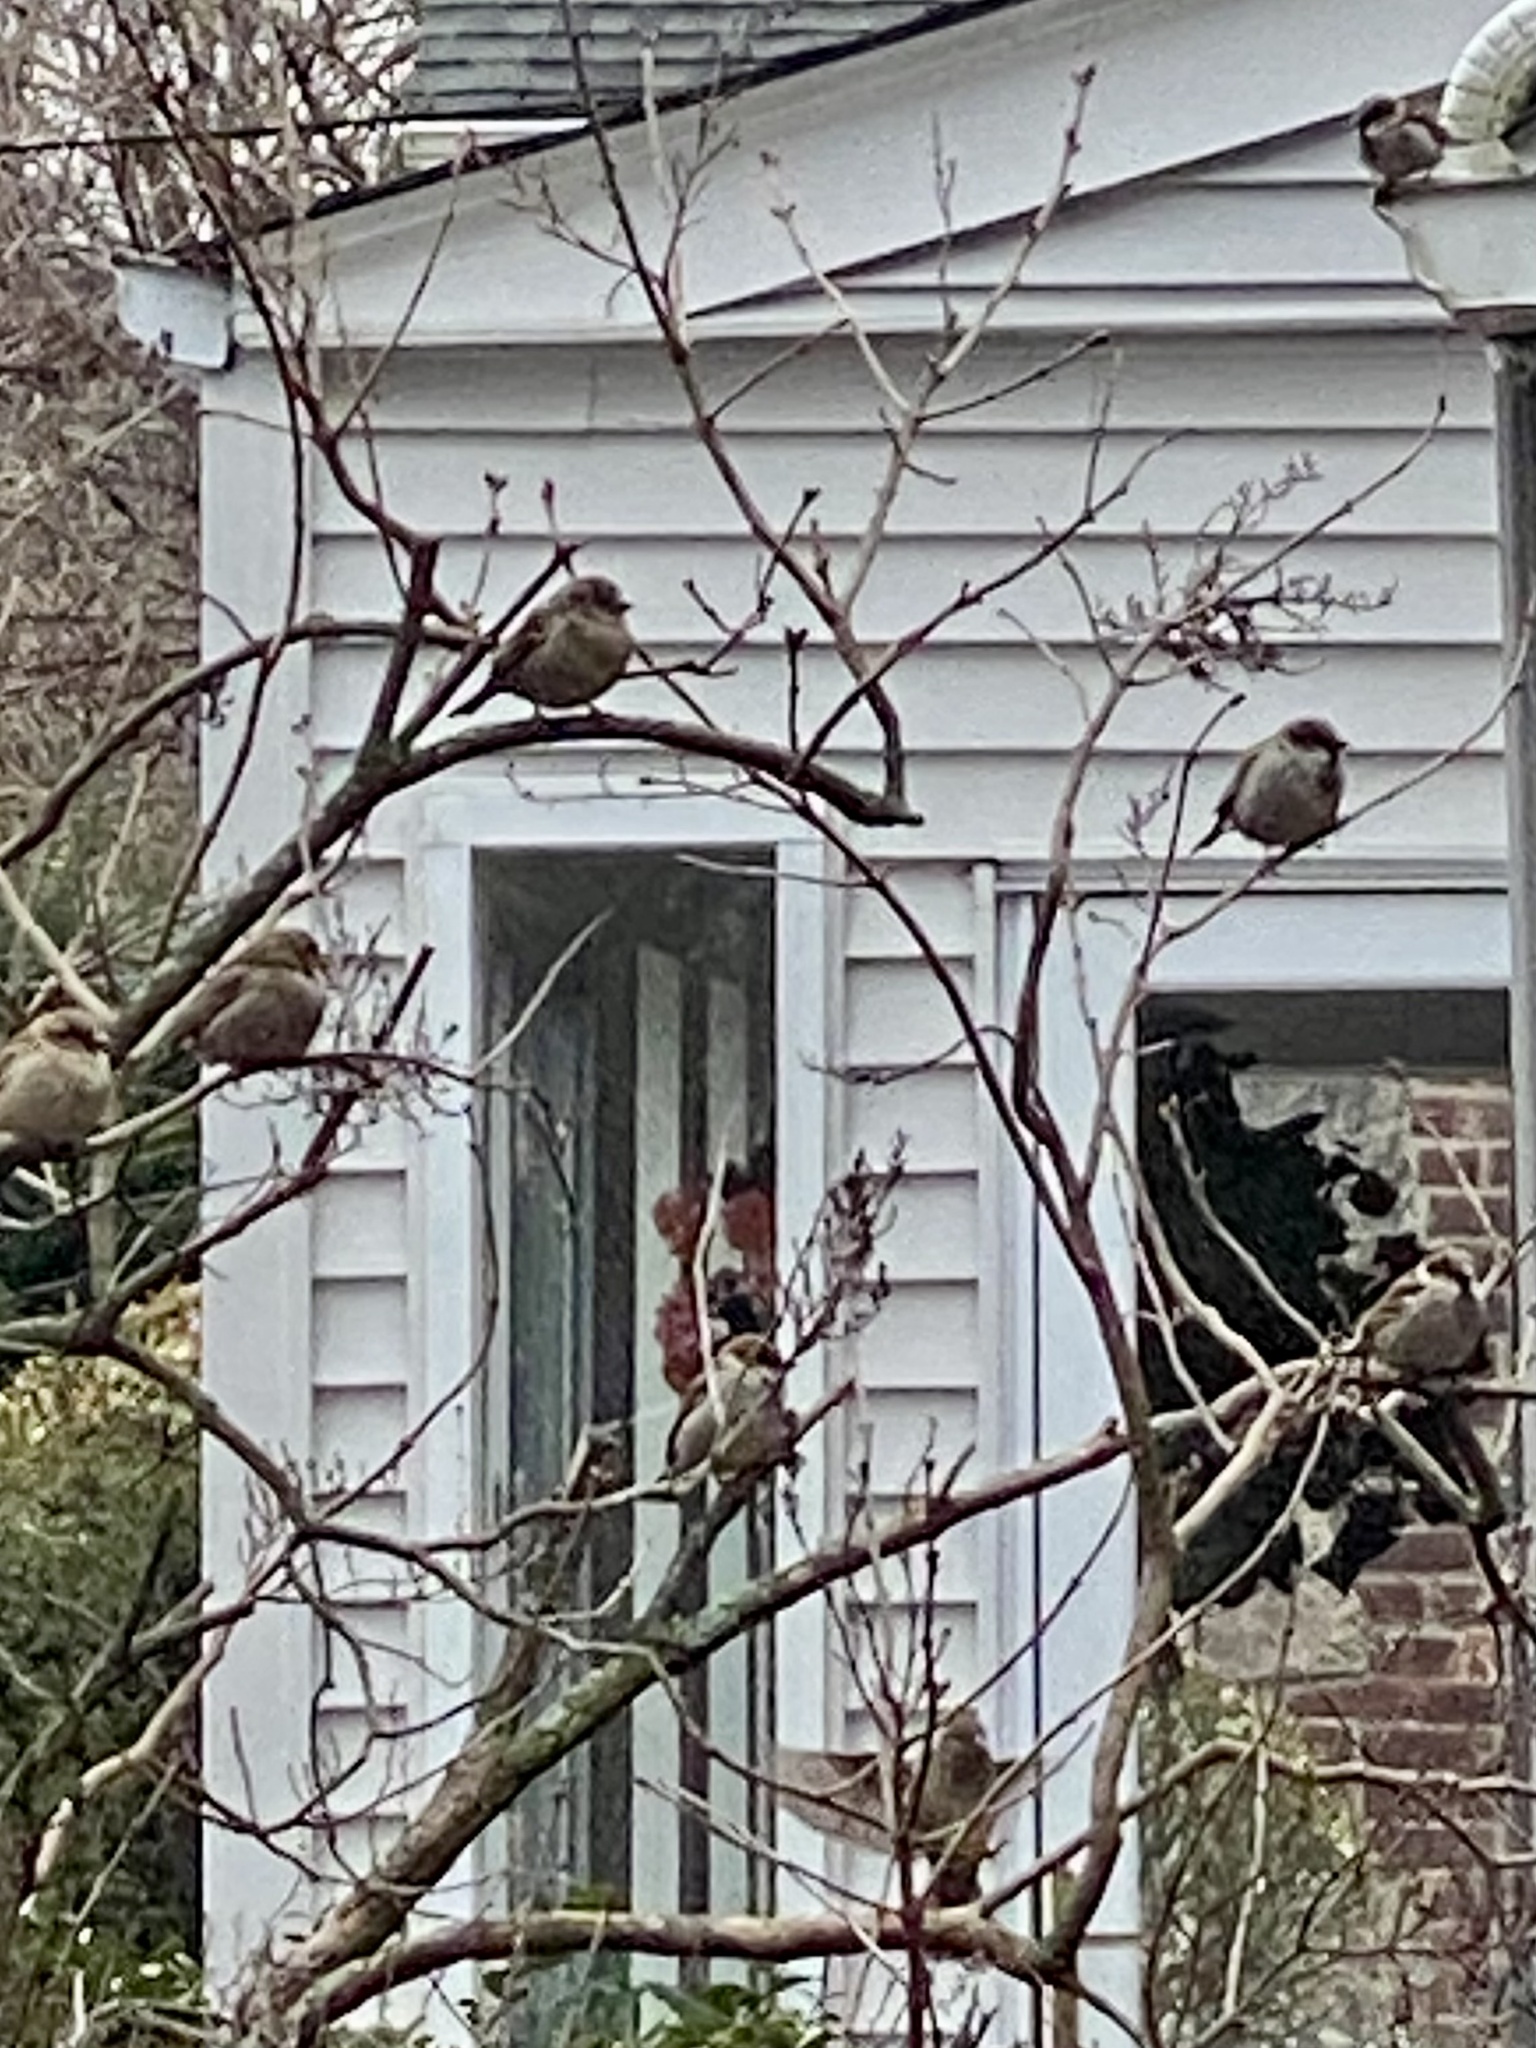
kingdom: Animalia
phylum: Chordata
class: Aves
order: Passeriformes
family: Passeridae
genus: Passer
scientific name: Passer domesticus
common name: House sparrow
